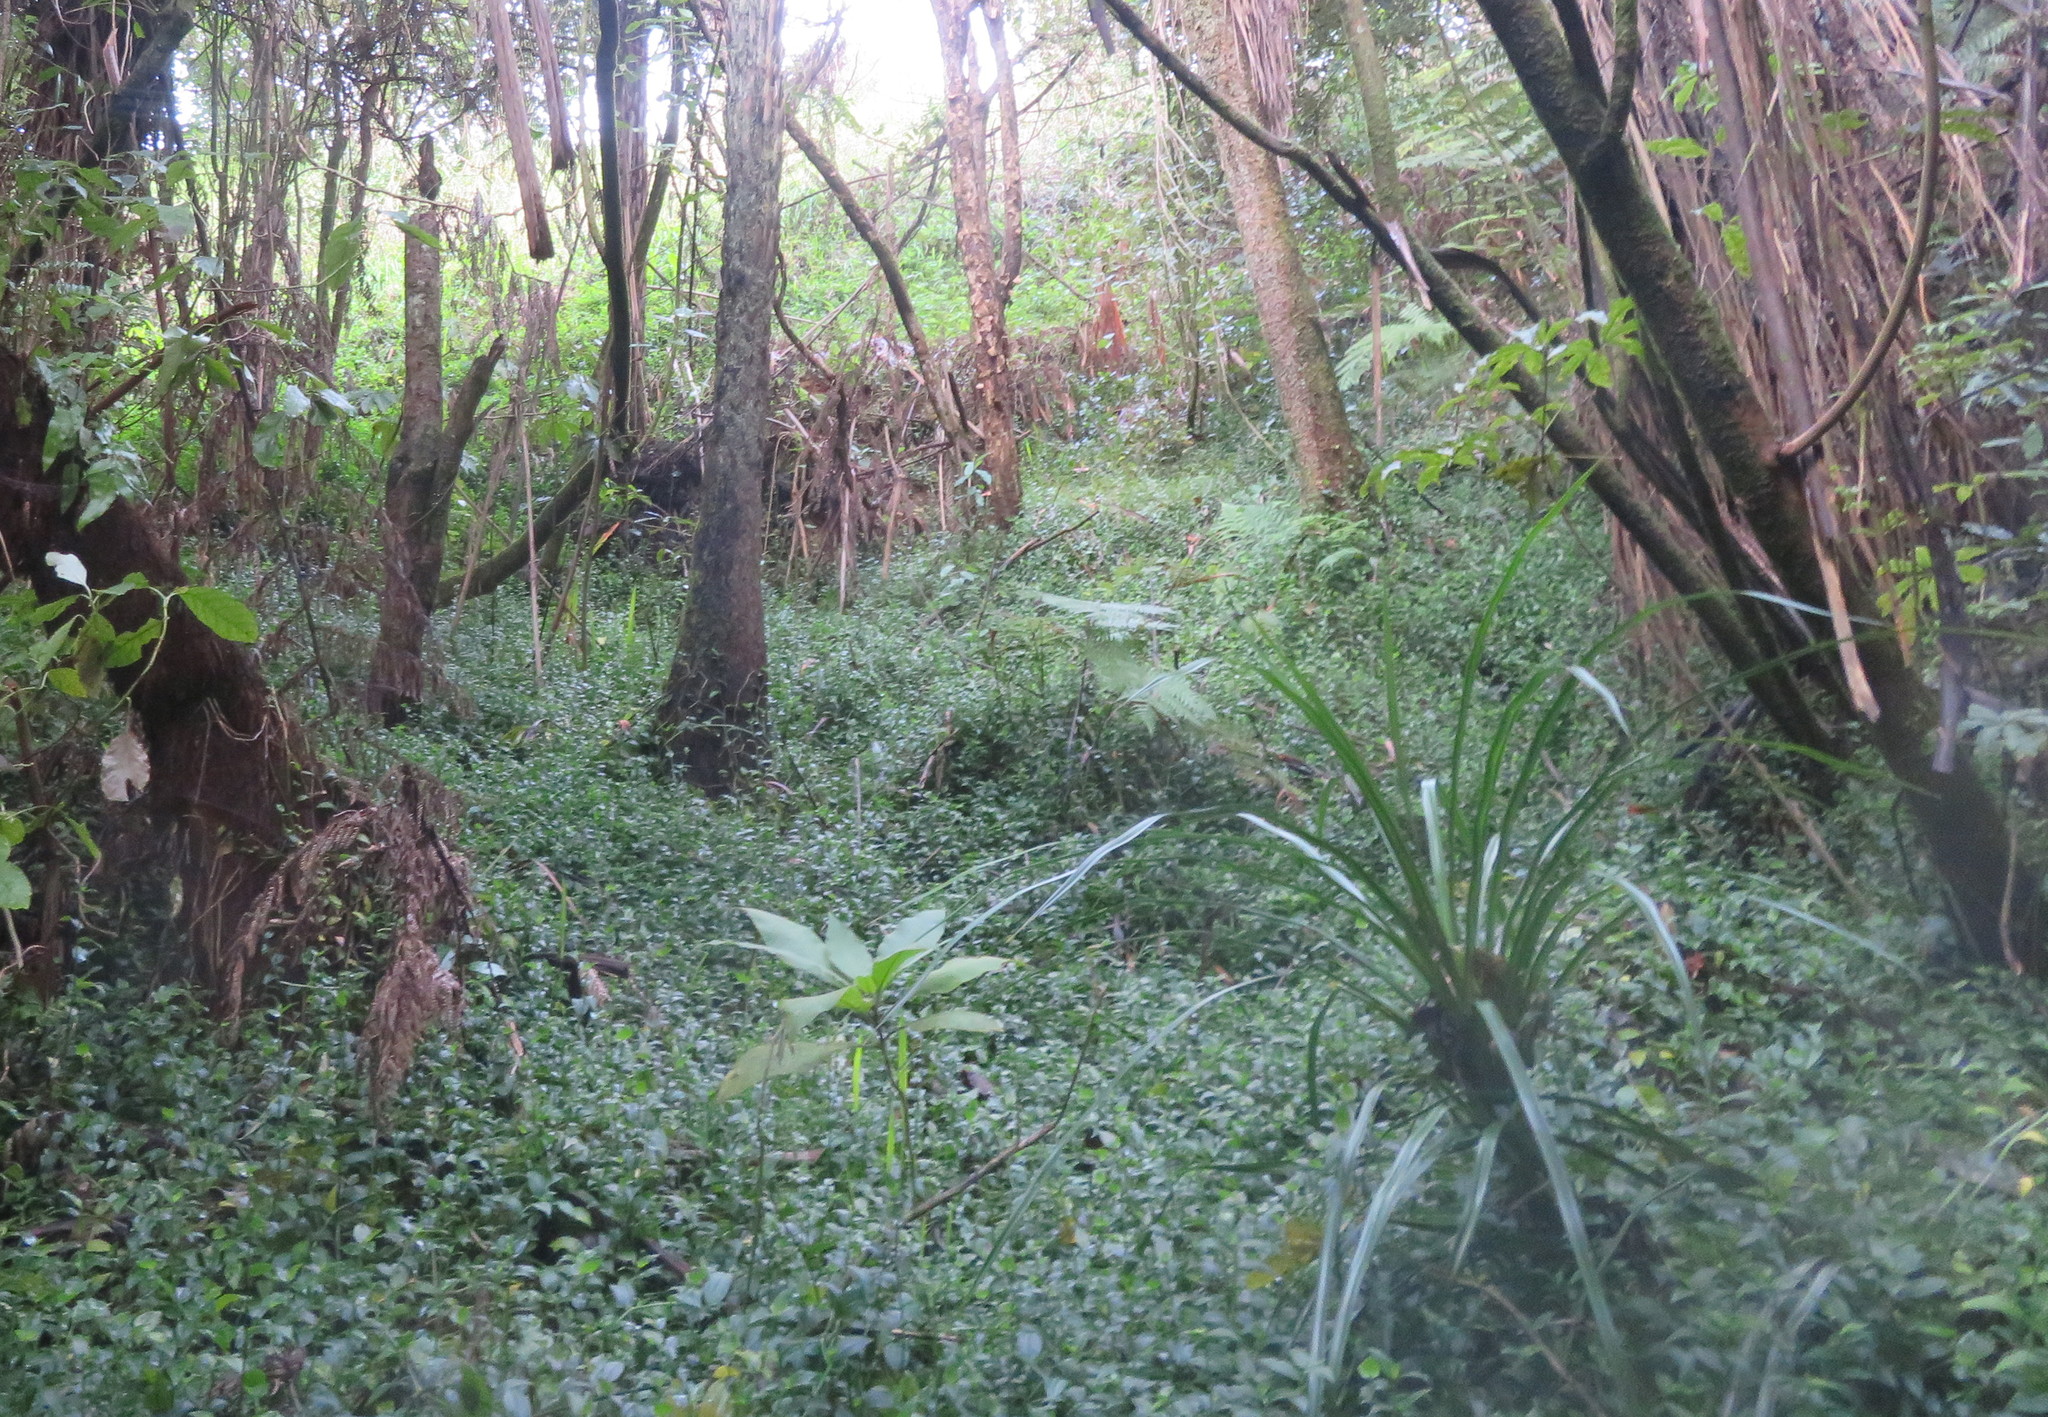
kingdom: Plantae
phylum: Tracheophyta
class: Liliopsida
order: Commelinales
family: Commelinaceae
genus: Tradescantia
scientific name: Tradescantia fluminensis
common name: Wandering-jew
